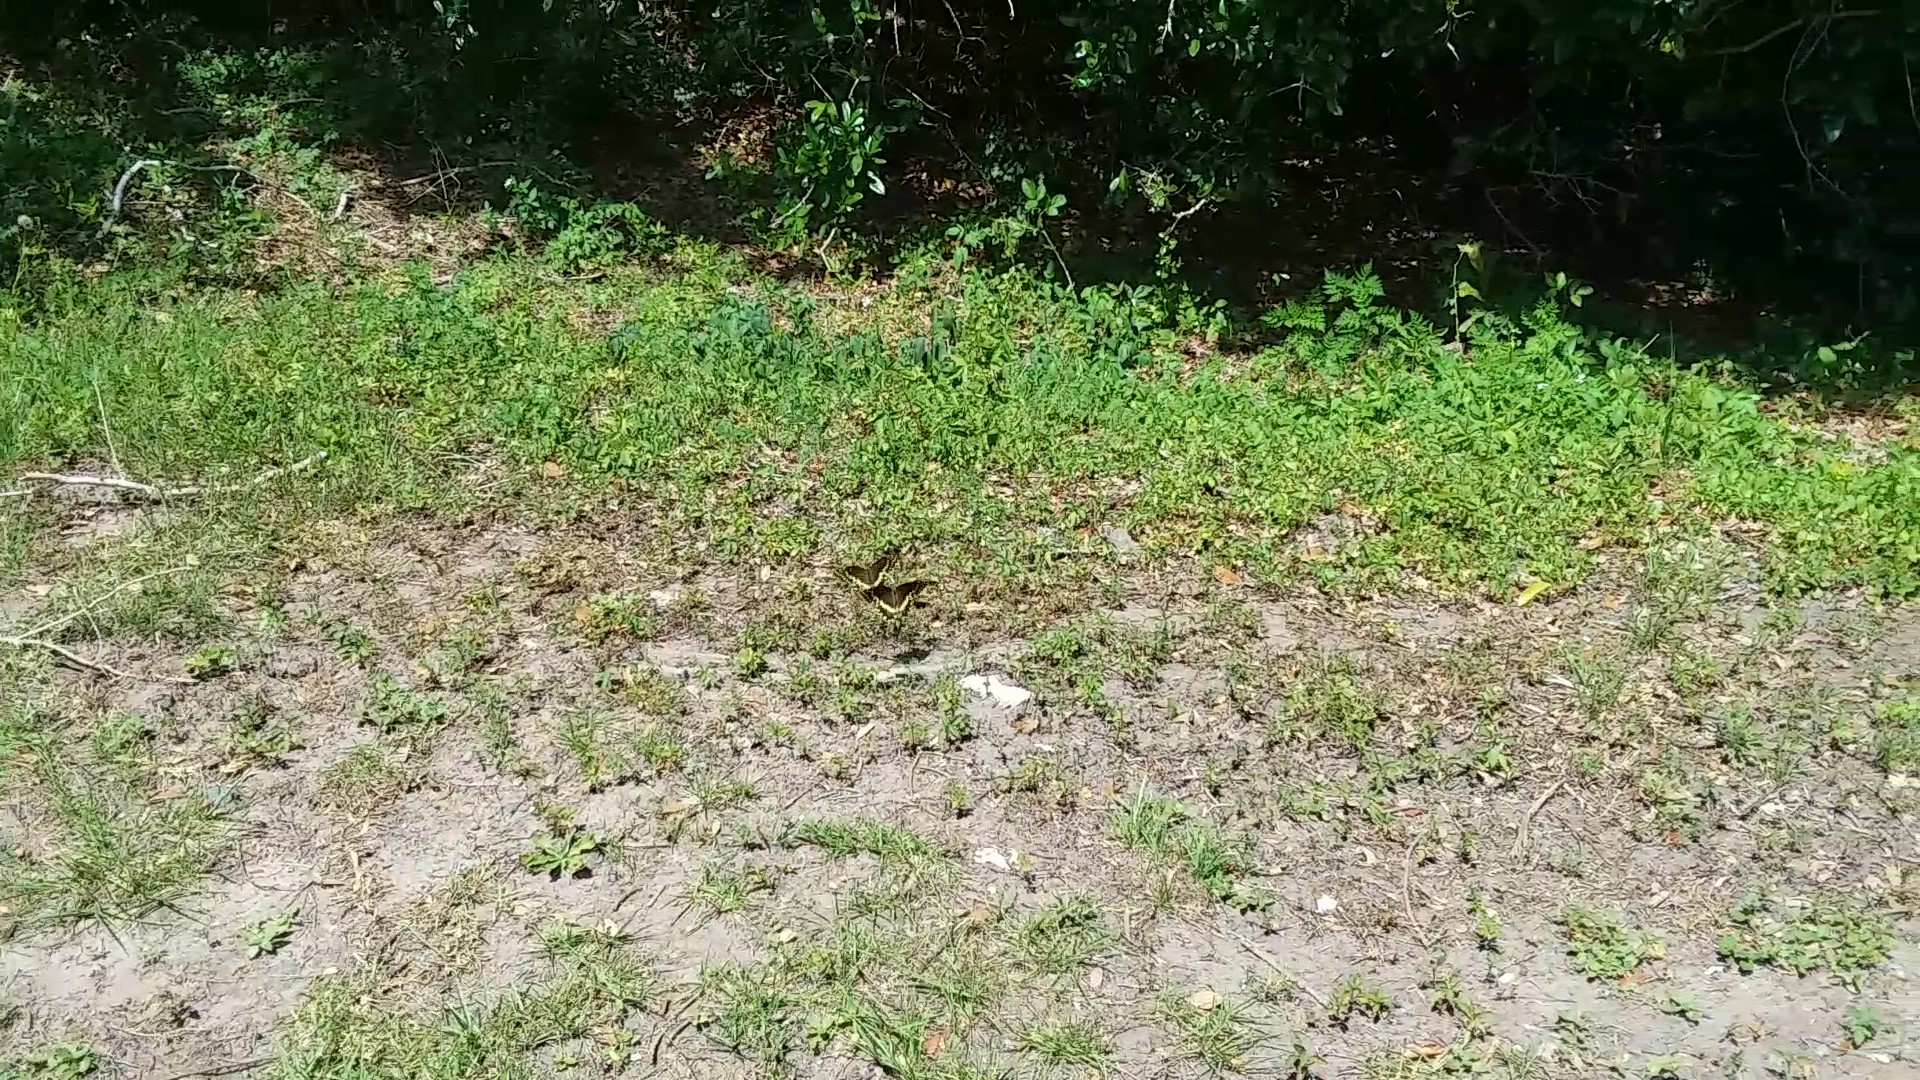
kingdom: Animalia
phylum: Arthropoda
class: Insecta
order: Lepidoptera
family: Papilionidae
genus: Papilio
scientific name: Papilio palamedes
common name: Palamedes swallowtail
